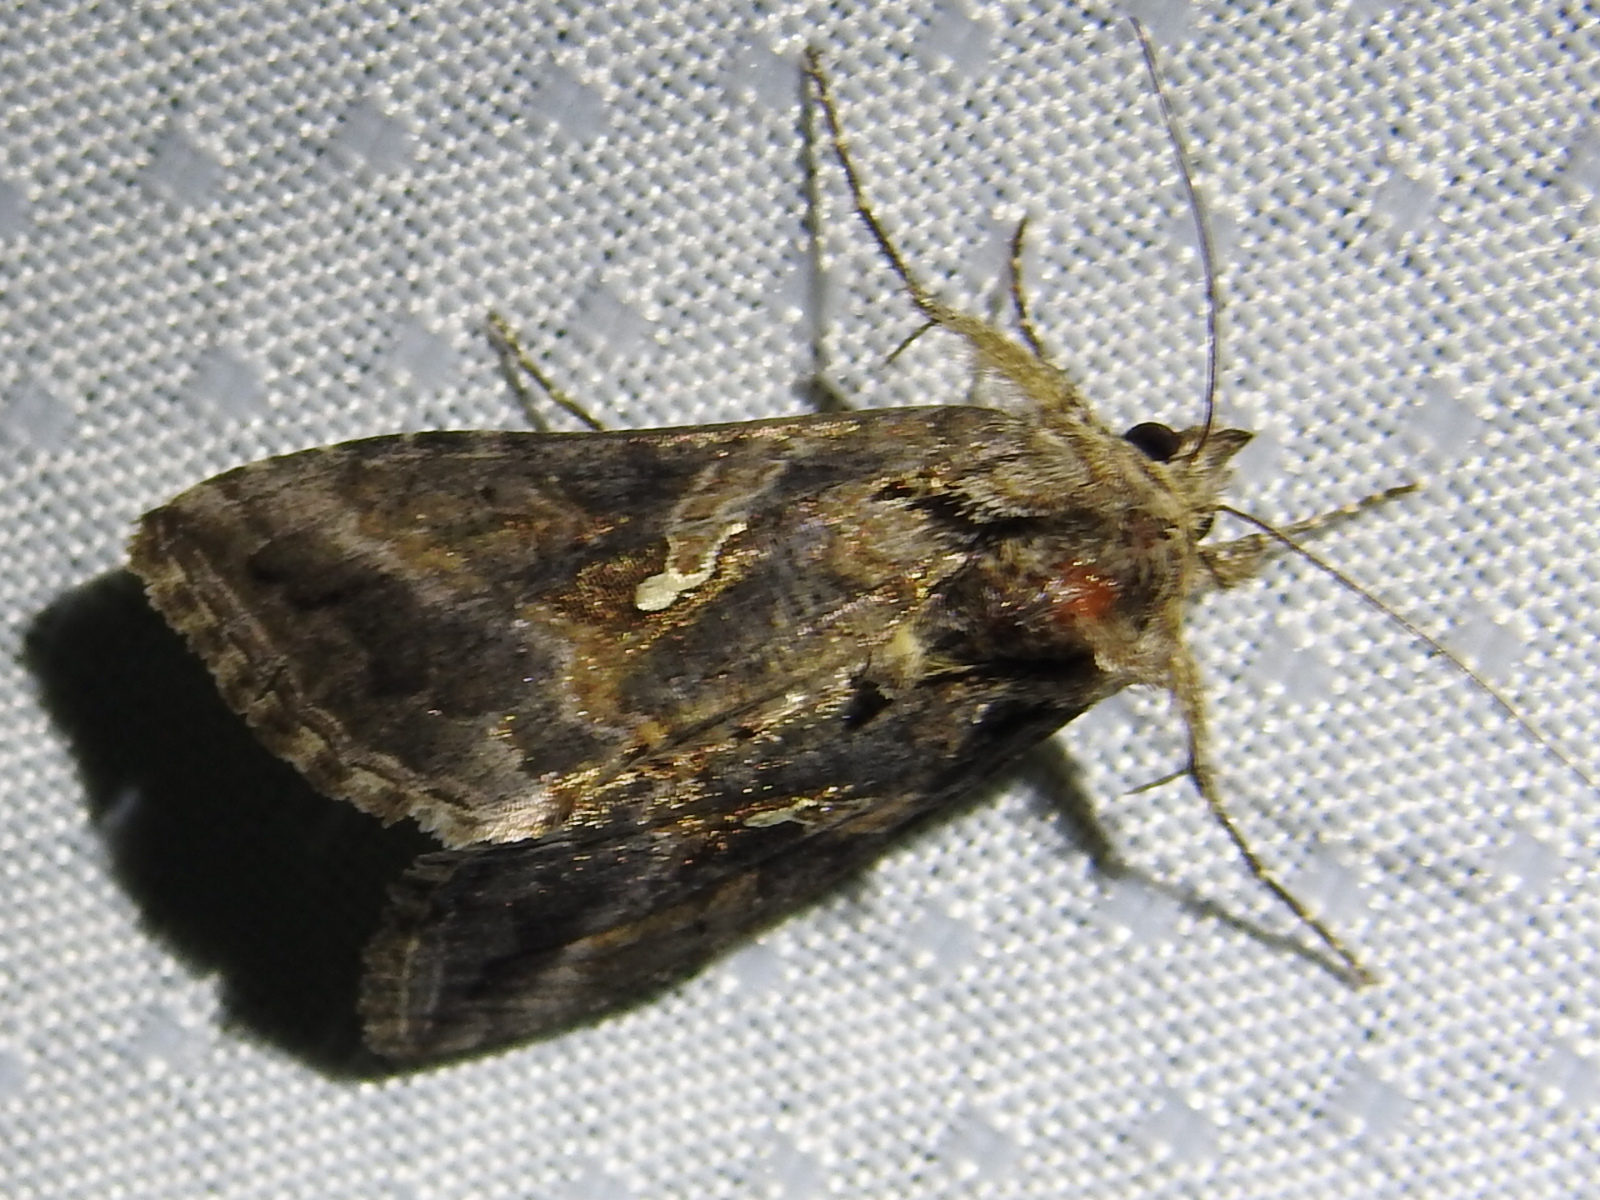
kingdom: Animalia
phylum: Arthropoda
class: Insecta
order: Lepidoptera
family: Noctuidae
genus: Rachiplusia
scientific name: Rachiplusia ou
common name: Gray looper moth
